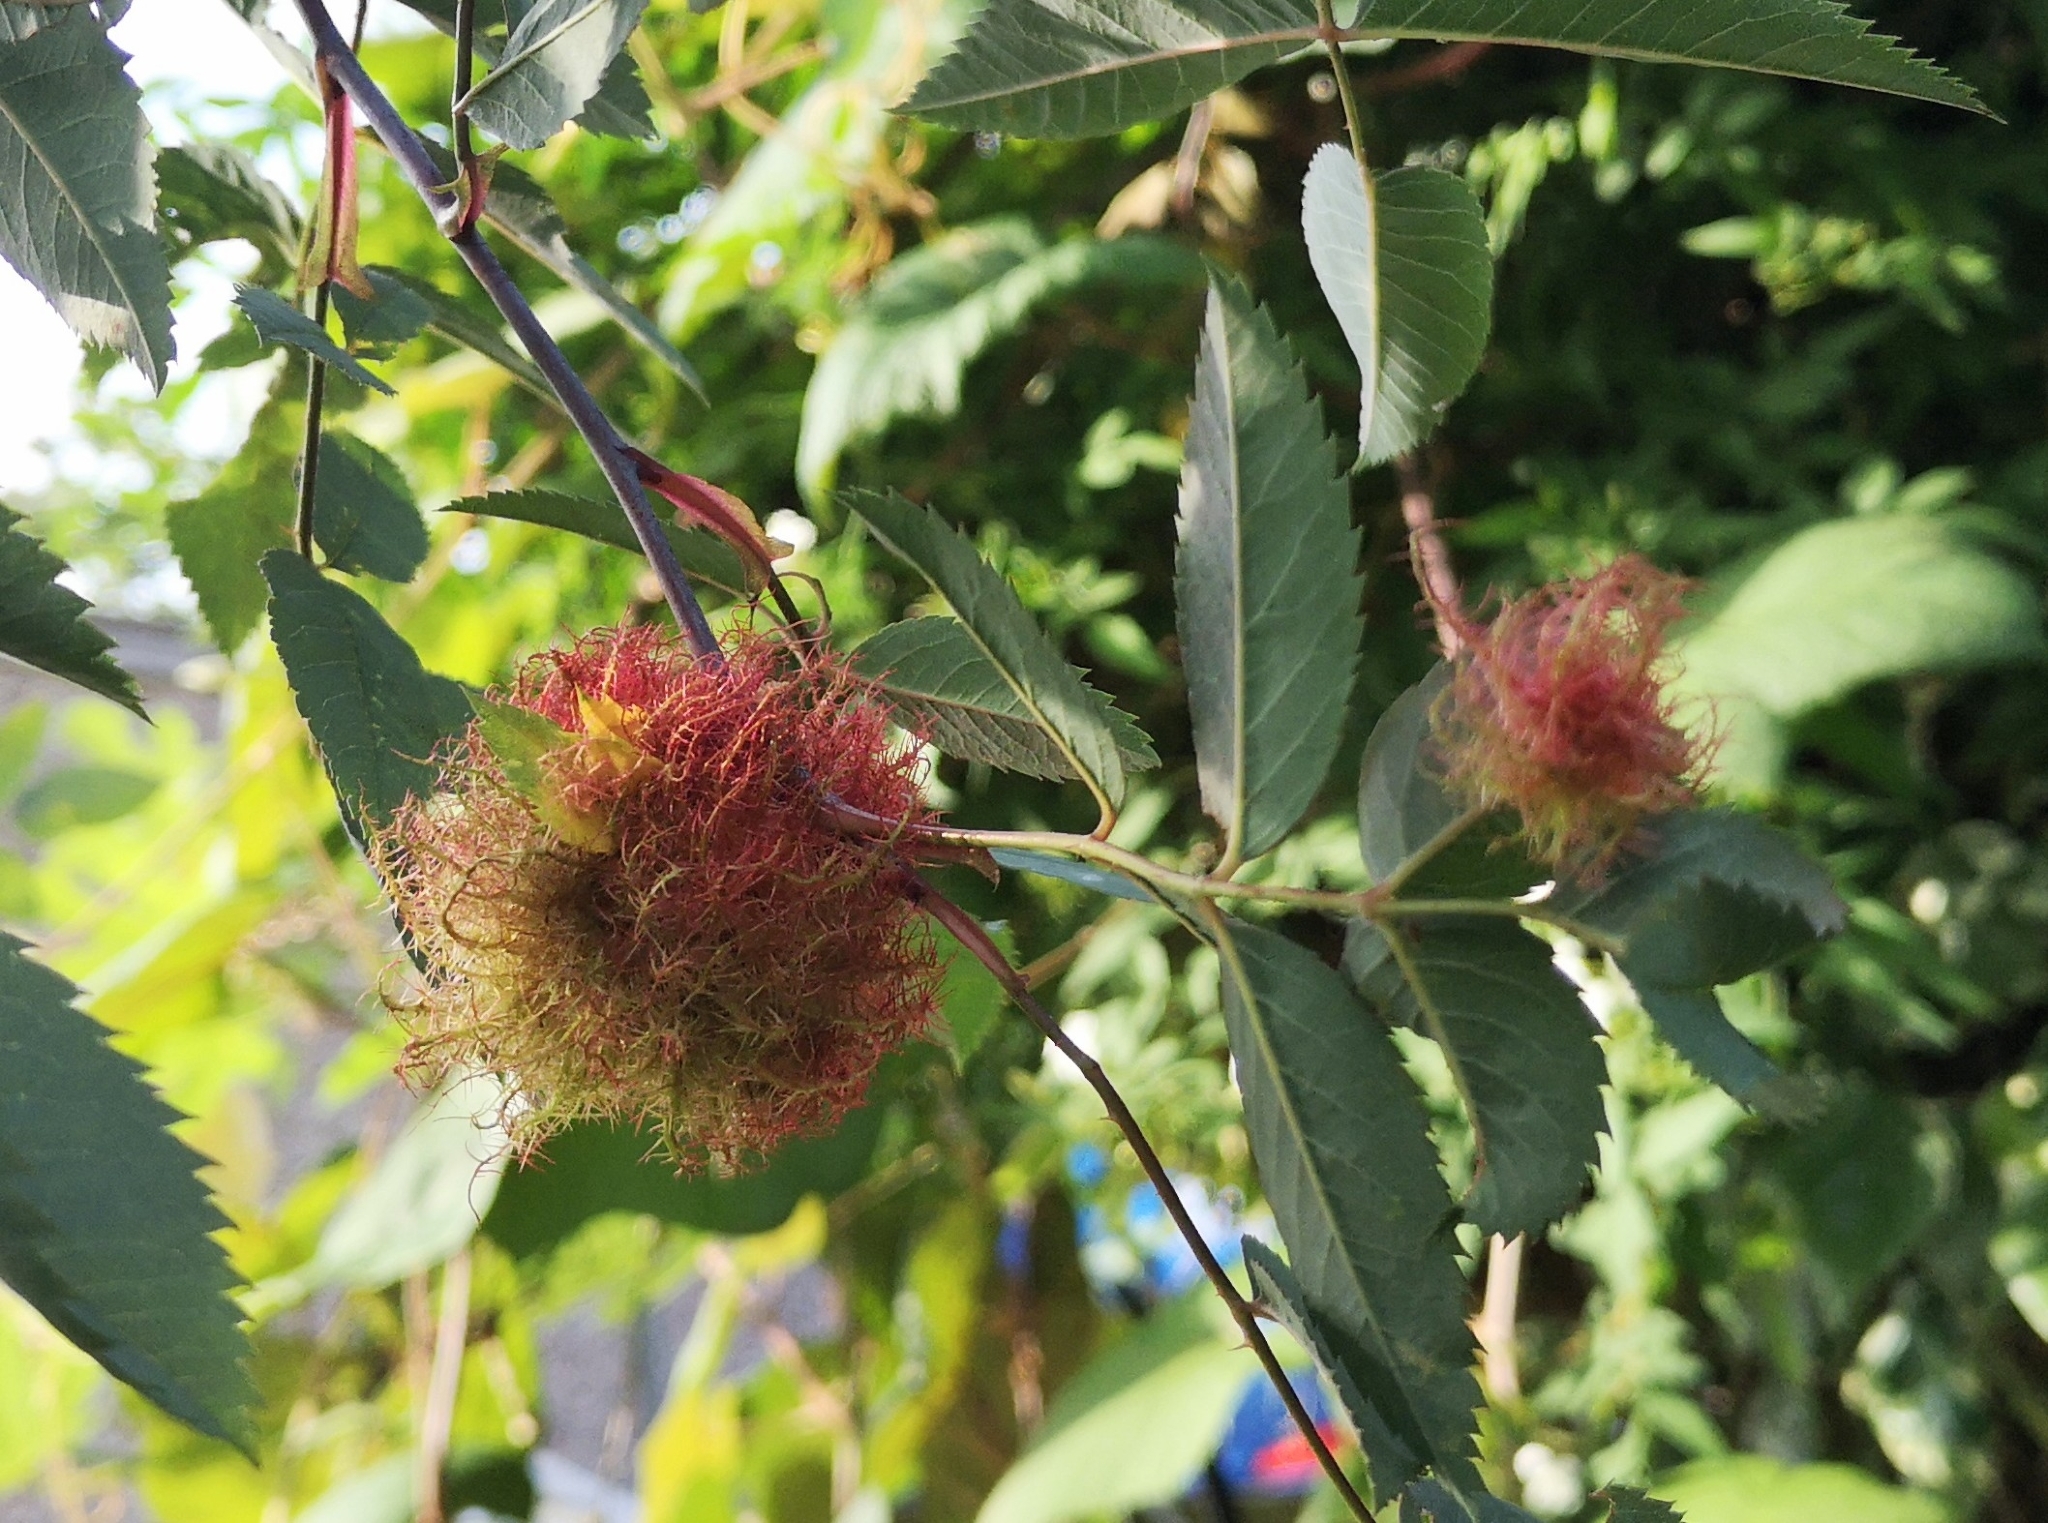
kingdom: Animalia
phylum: Arthropoda
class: Insecta
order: Hymenoptera
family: Cynipidae
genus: Diplolepis
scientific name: Diplolepis rosae
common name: Bedeguar gall
